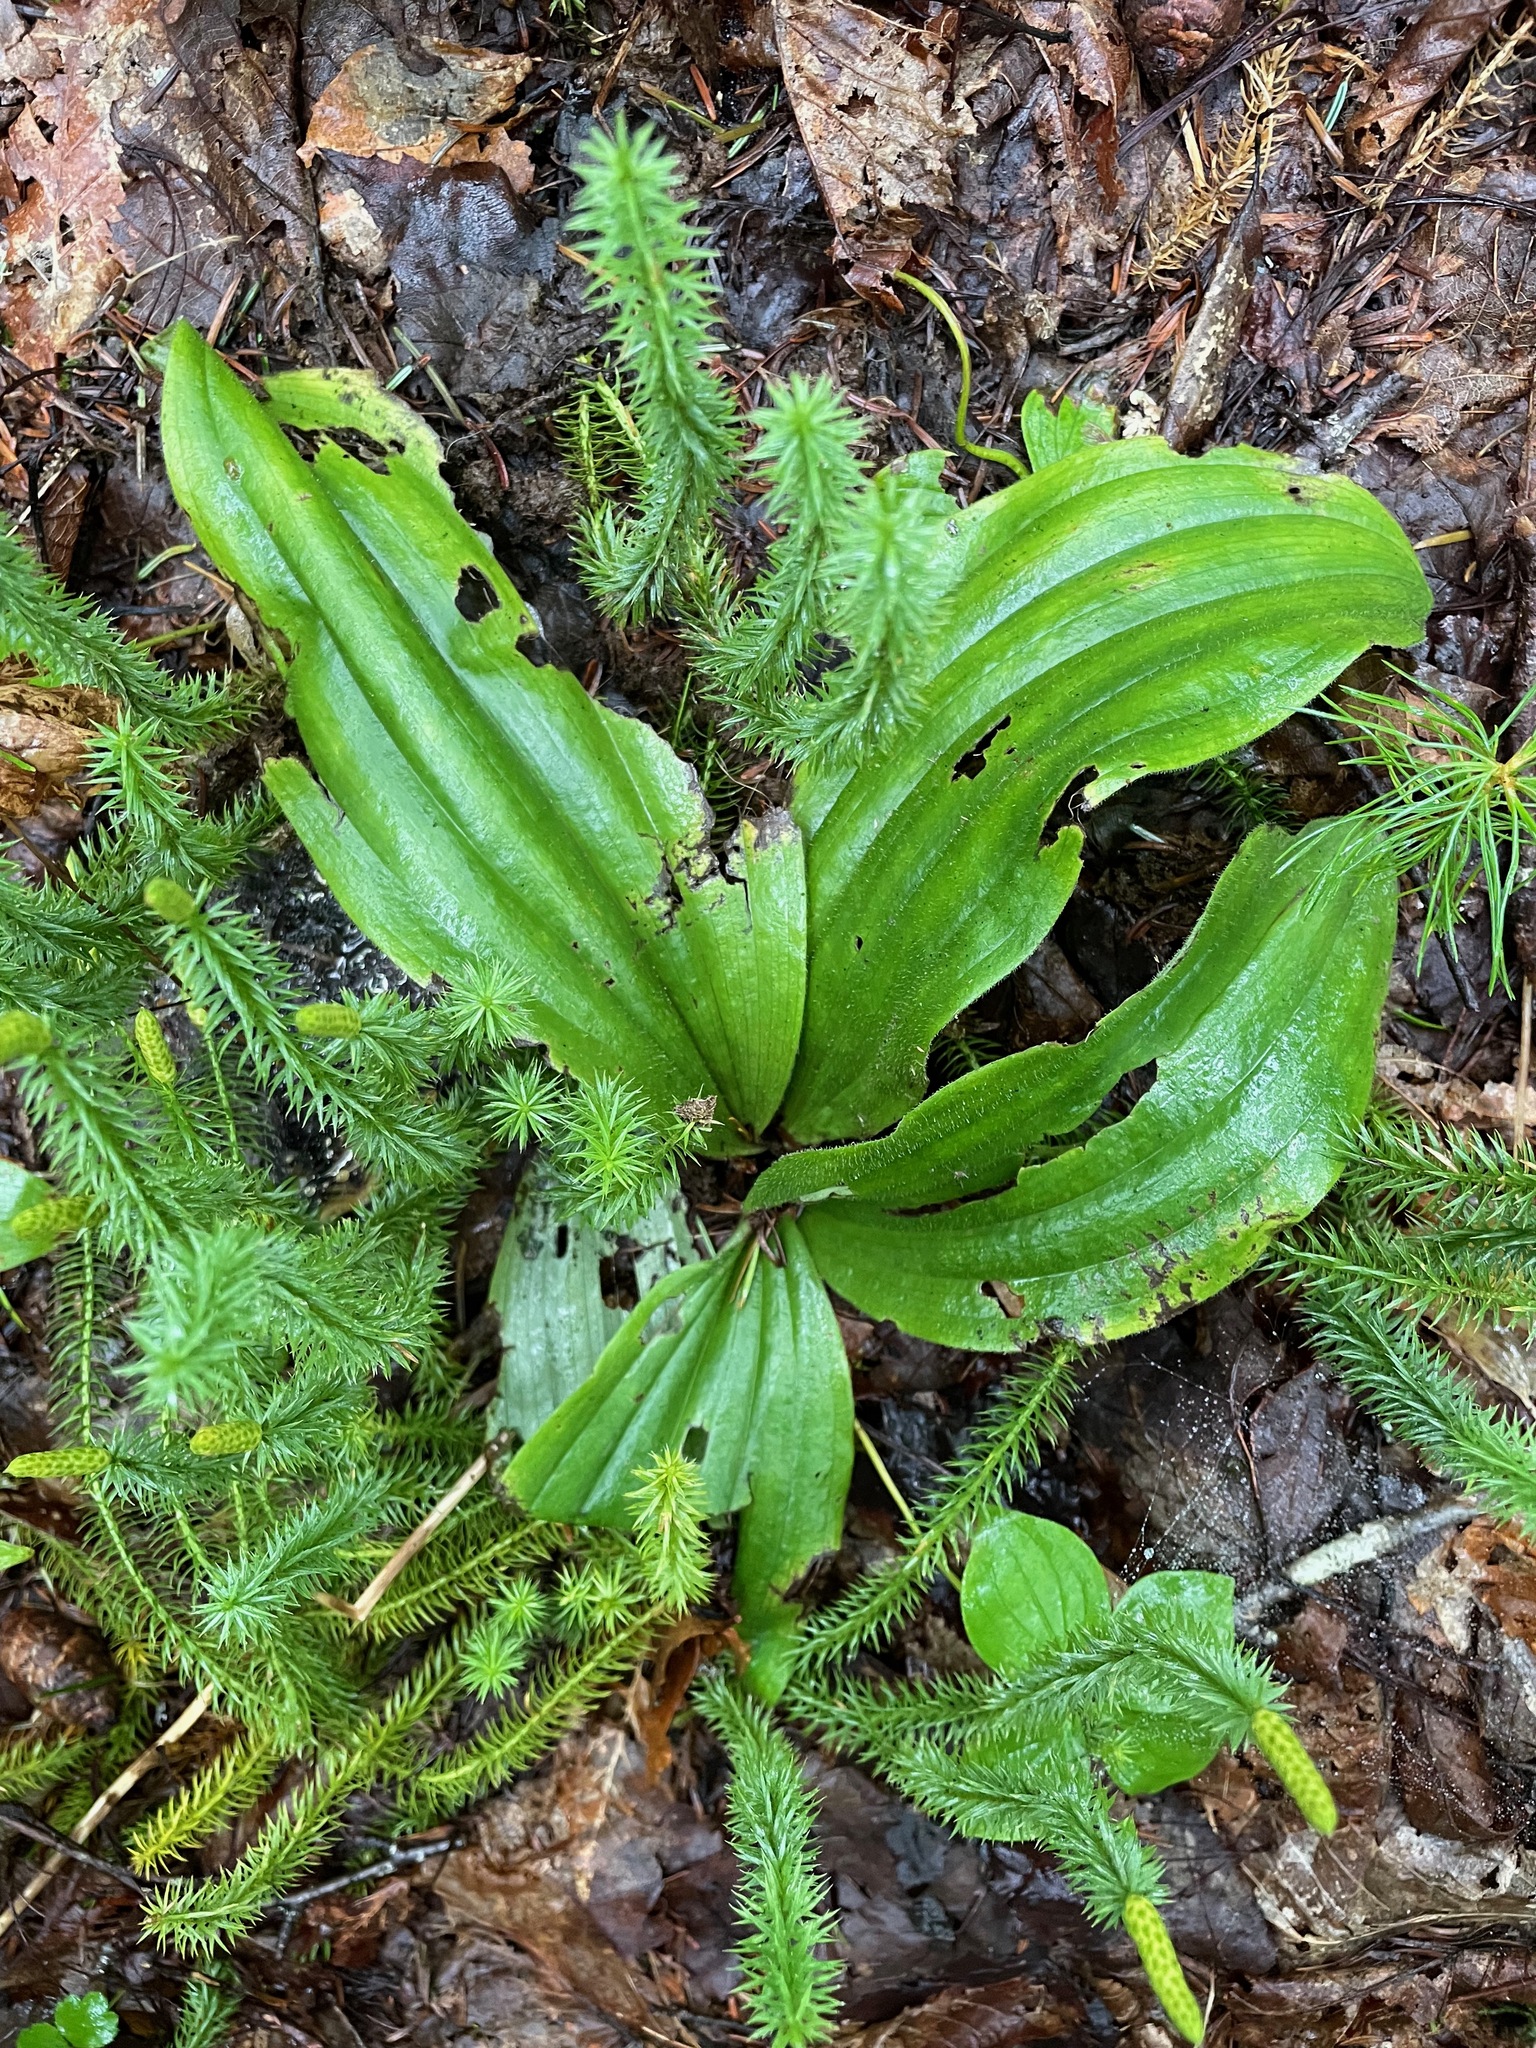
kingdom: Plantae
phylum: Tracheophyta
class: Liliopsida
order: Asparagales
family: Orchidaceae
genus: Cypripedium
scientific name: Cypripedium acaule
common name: Pink lady's-slipper
